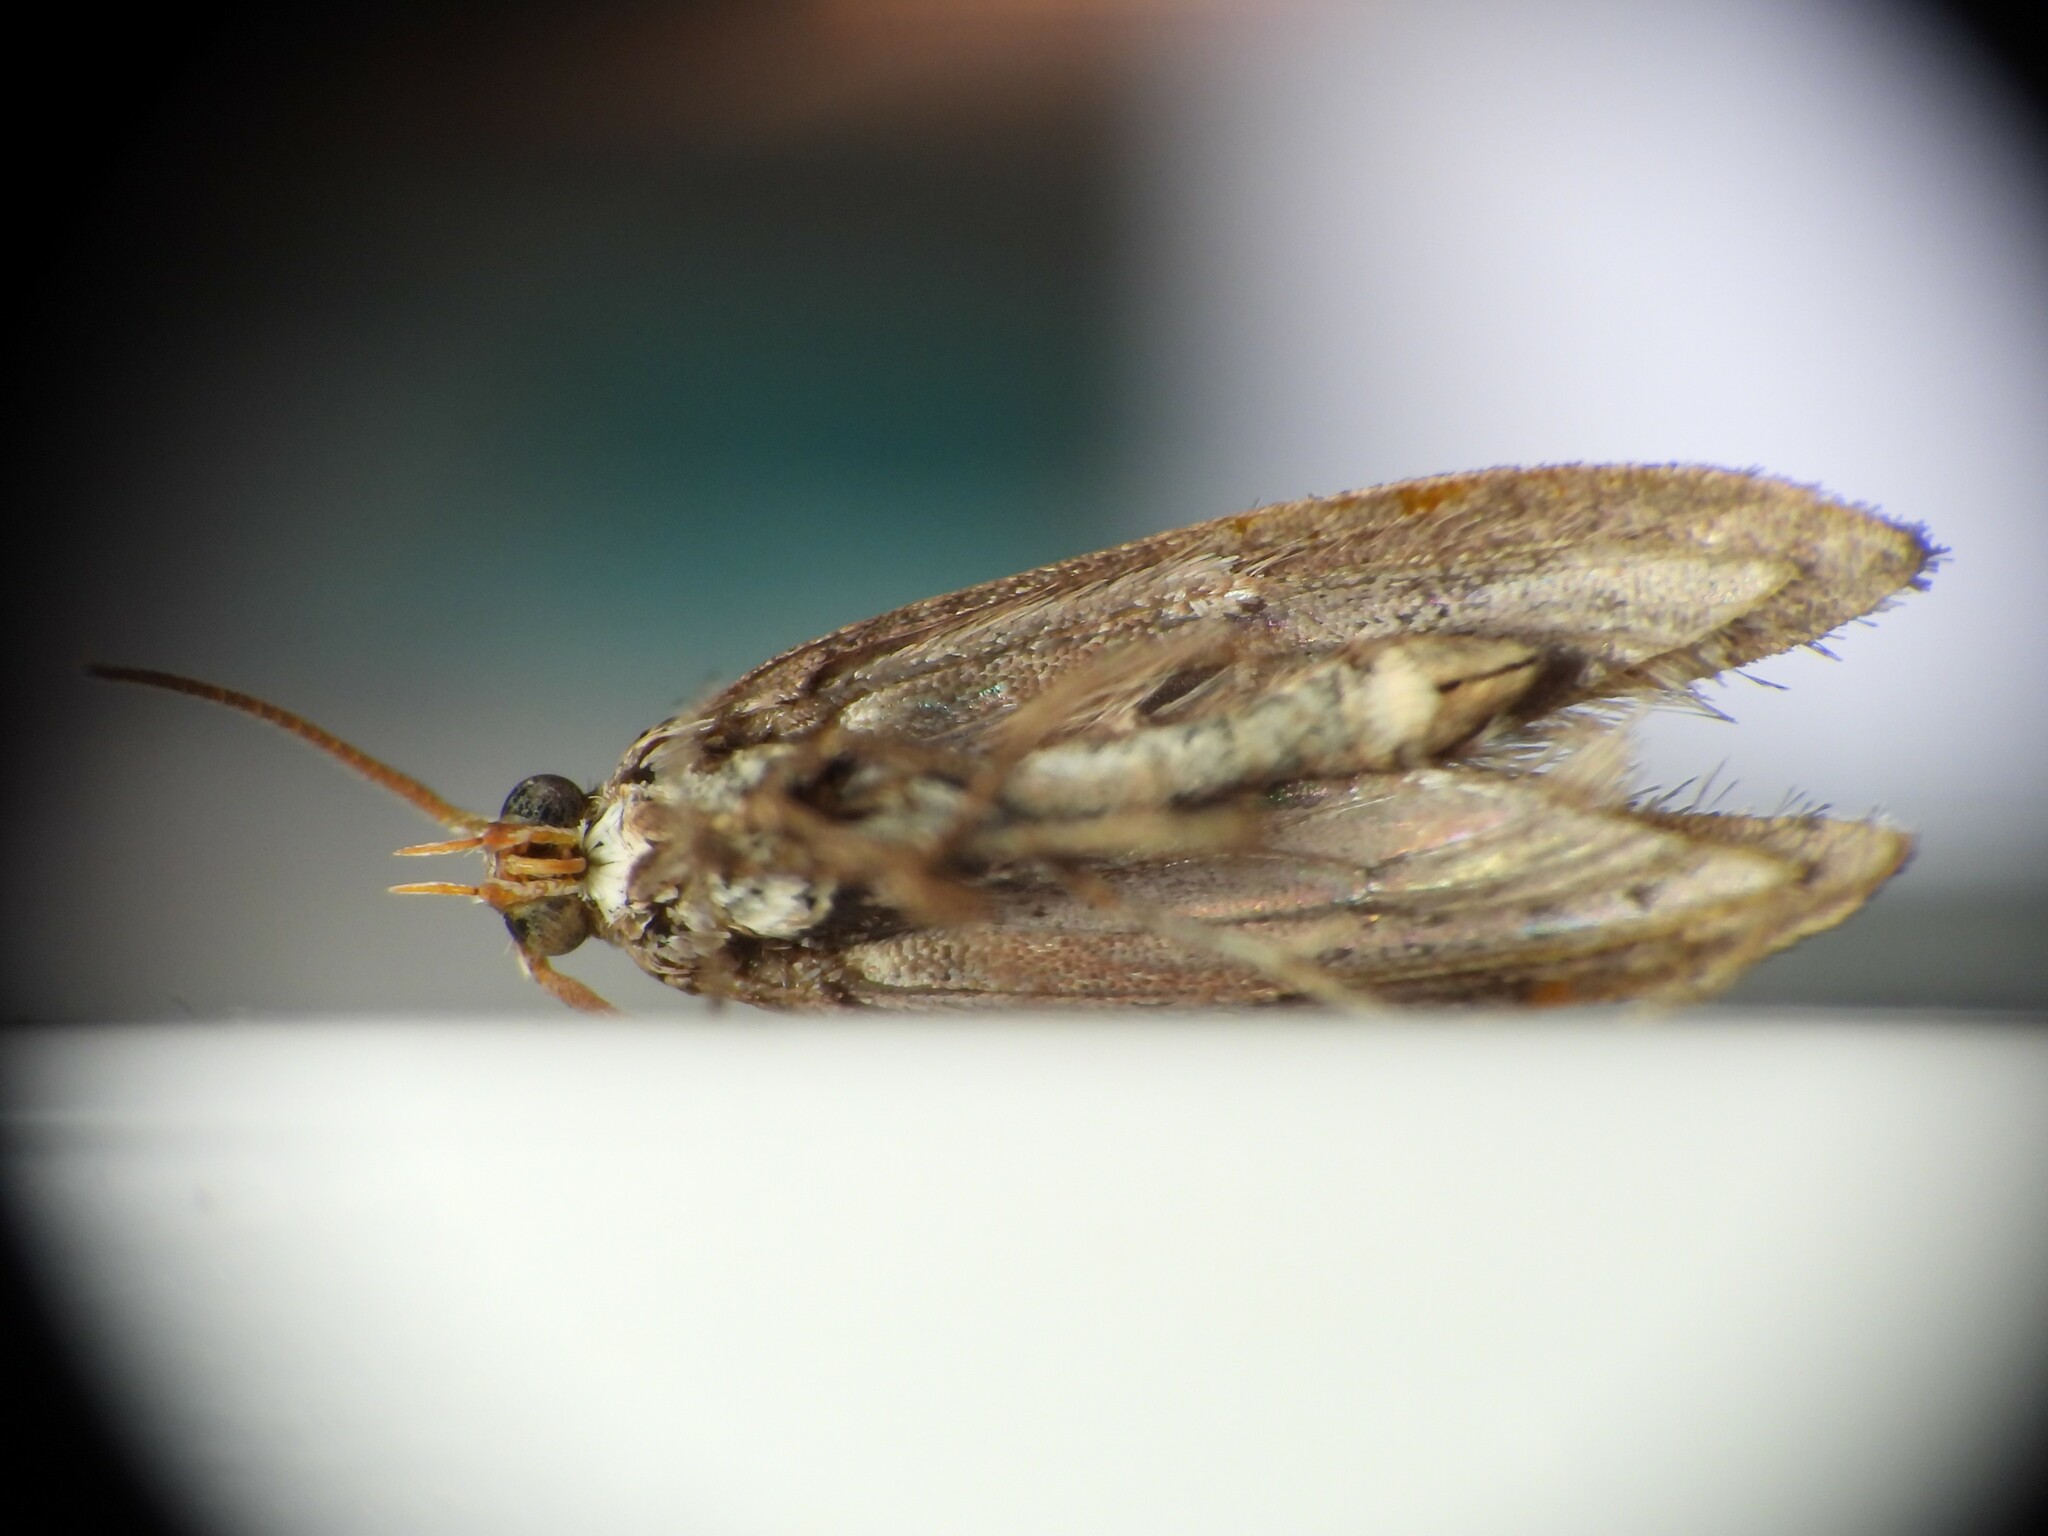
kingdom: Animalia
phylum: Arthropoda
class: Insecta
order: Lepidoptera
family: Plutellidae
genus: Plutella
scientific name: Plutella xylostella
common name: Diamond-back moth
